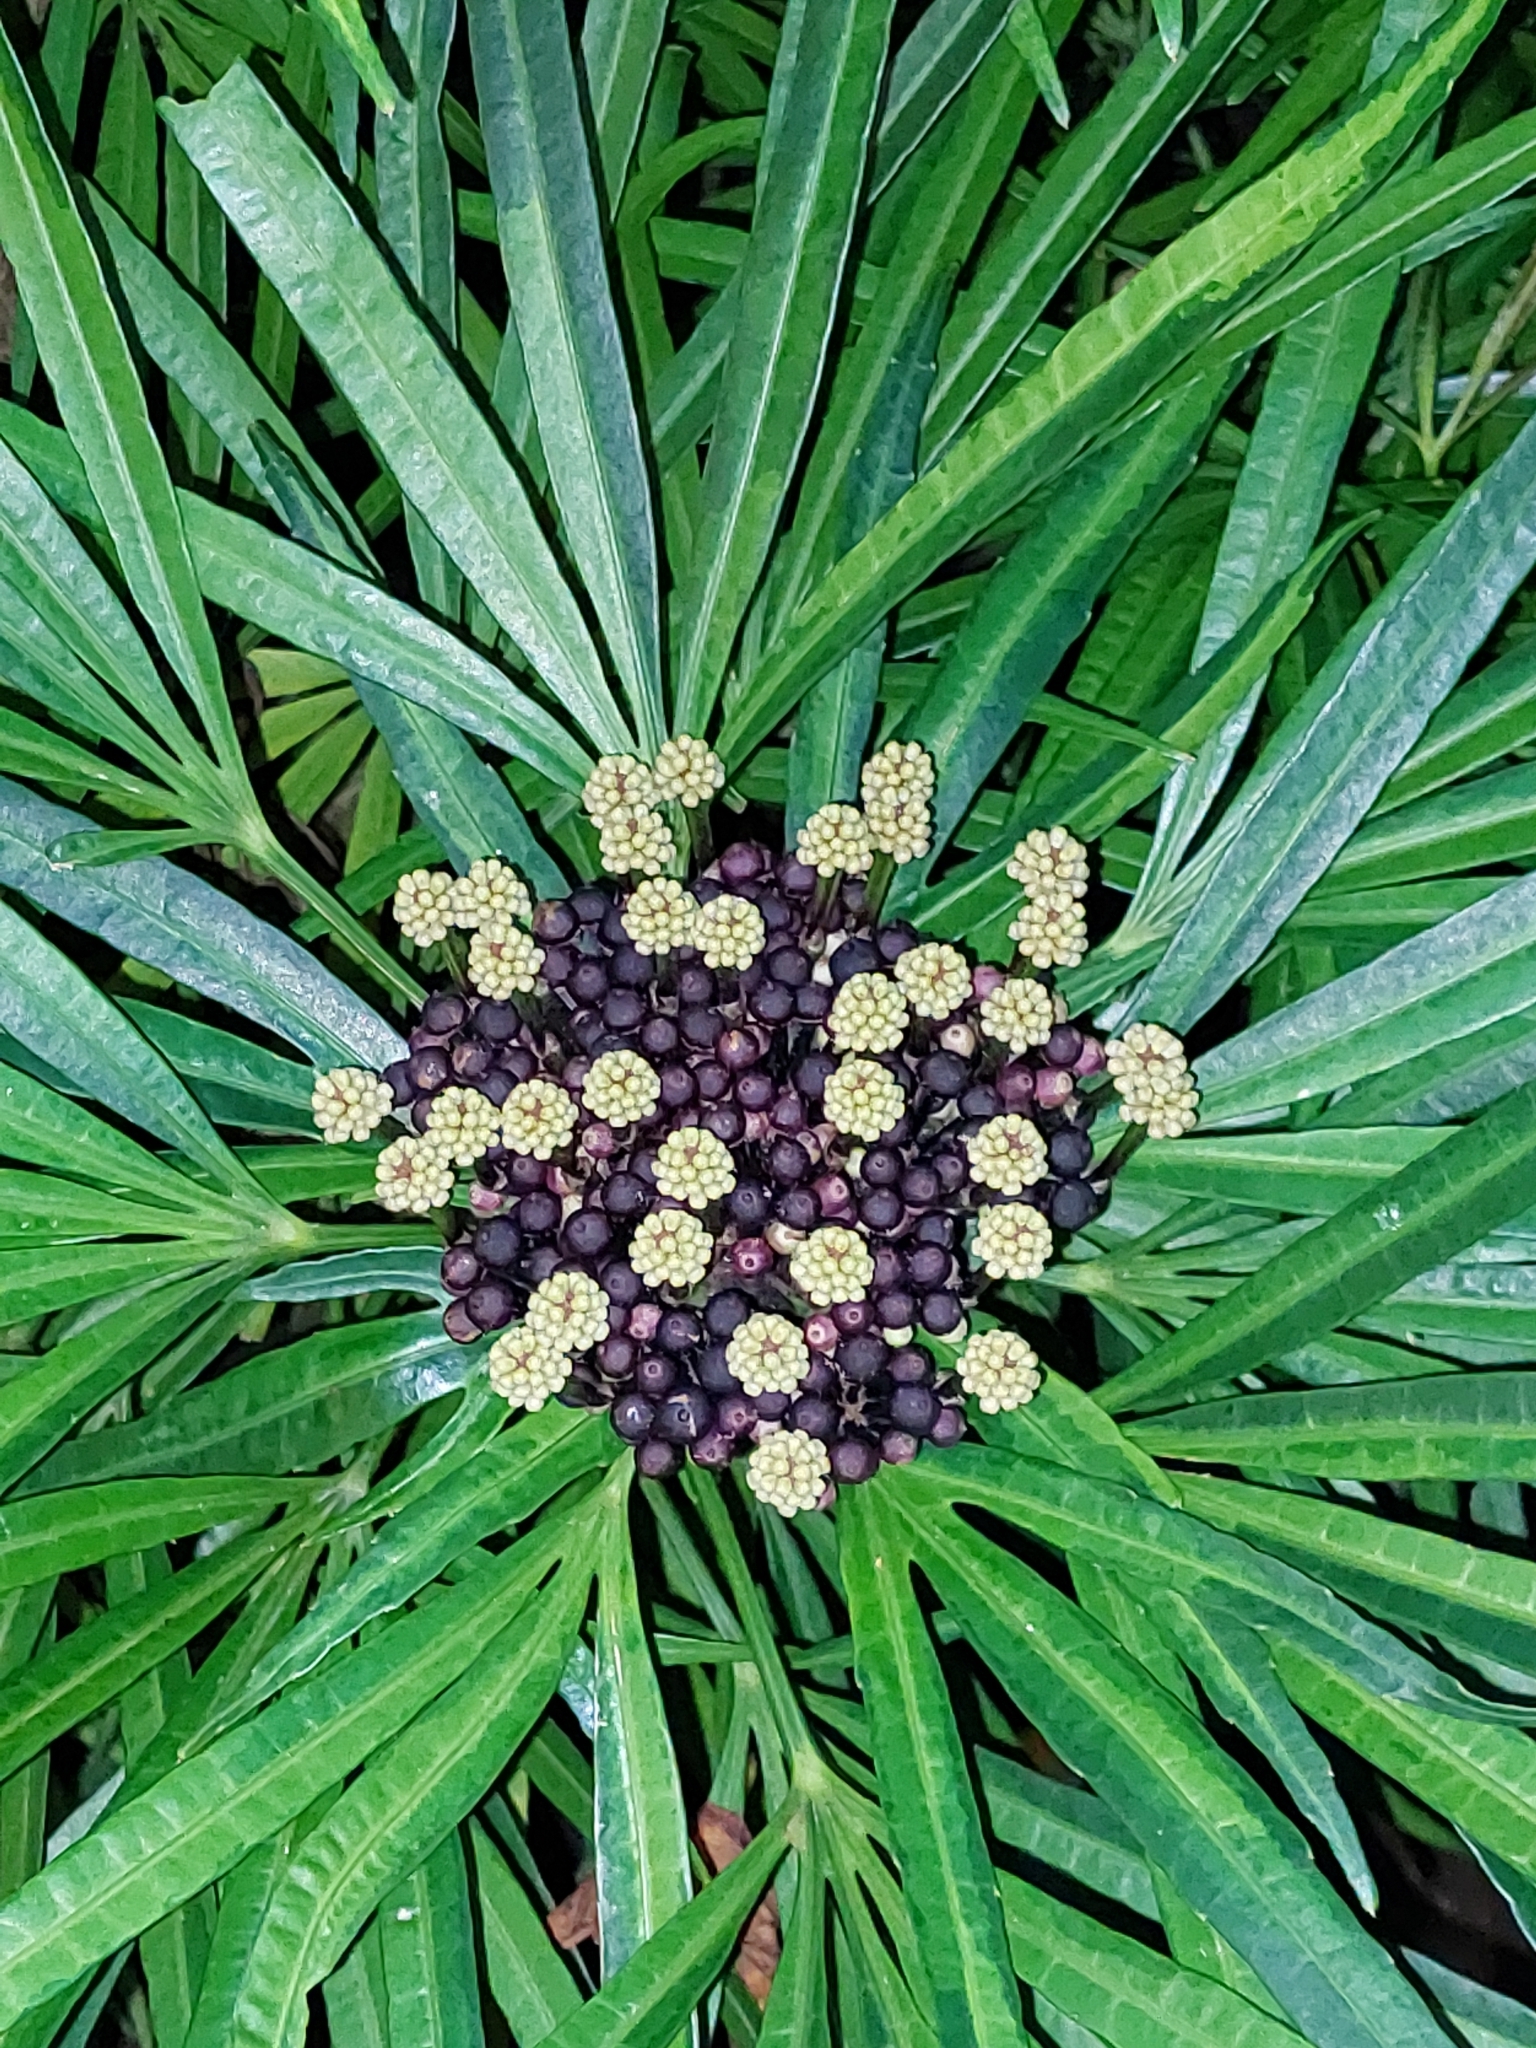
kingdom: Plantae
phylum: Tracheophyta
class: Magnoliopsida
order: Apiales
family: Araliaceae
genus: Osmoxylon
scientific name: Osmoxylon lineare
